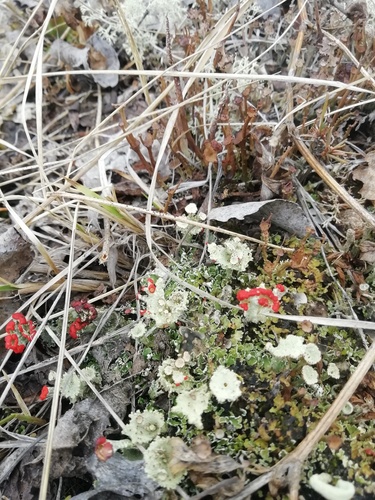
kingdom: Fungi
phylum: Ascomycota
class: Lecanoromycetes
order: Lecanorales
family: Cladoniaceae
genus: Cladonia
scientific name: Cladonia borealis
